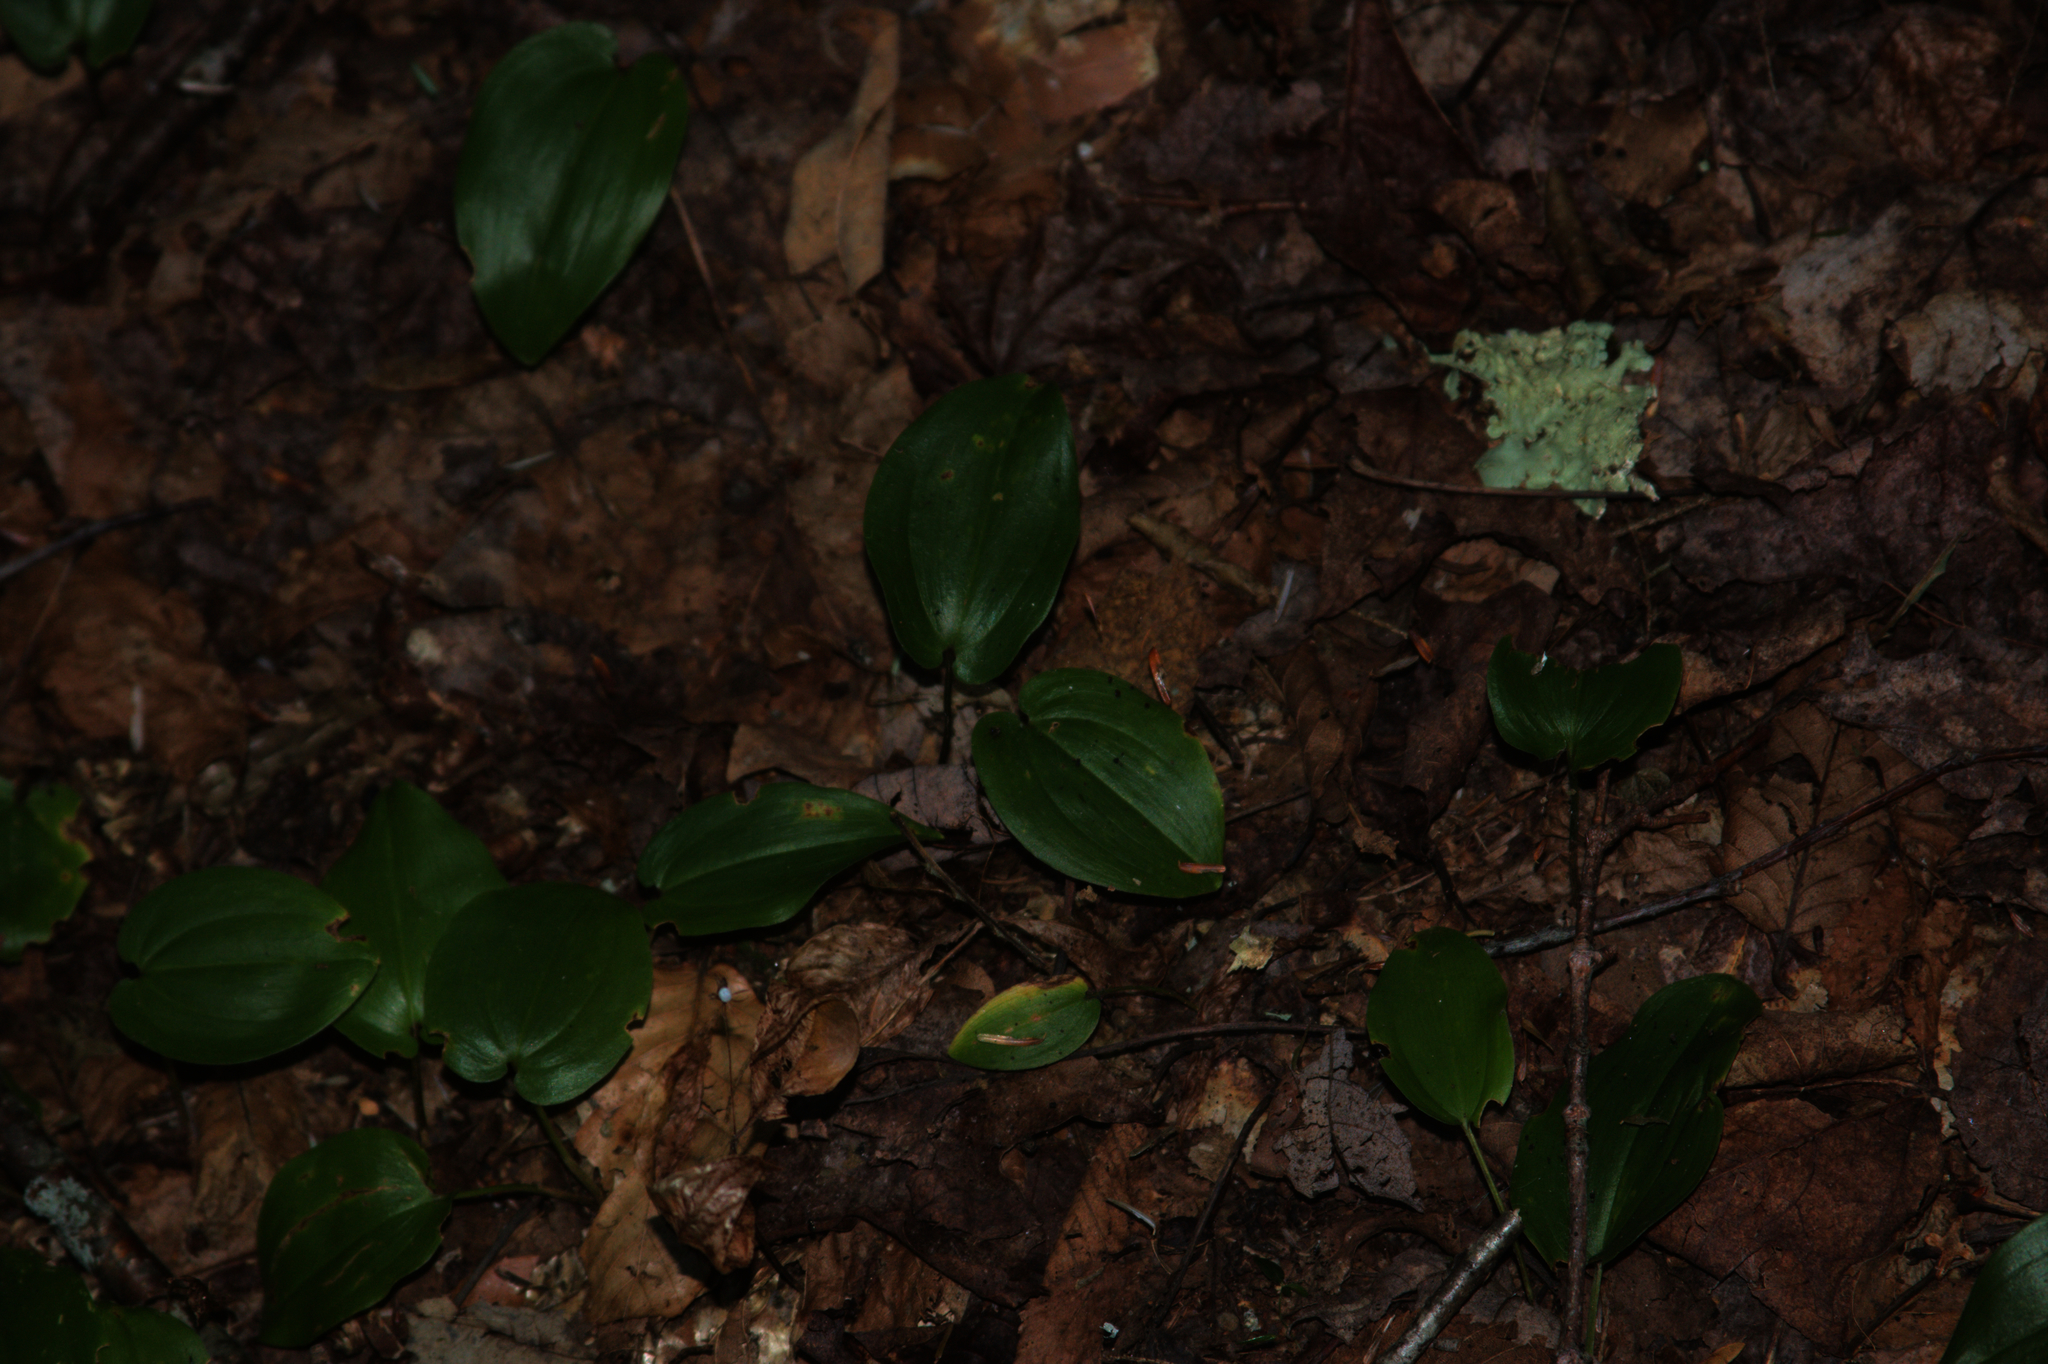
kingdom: Plantae
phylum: Tracheophyta
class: Liliopsida
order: Asparagales
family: Asparagaceae
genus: Maianthemum
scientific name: Maianthemum canadense
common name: False lily-of-the-valley
